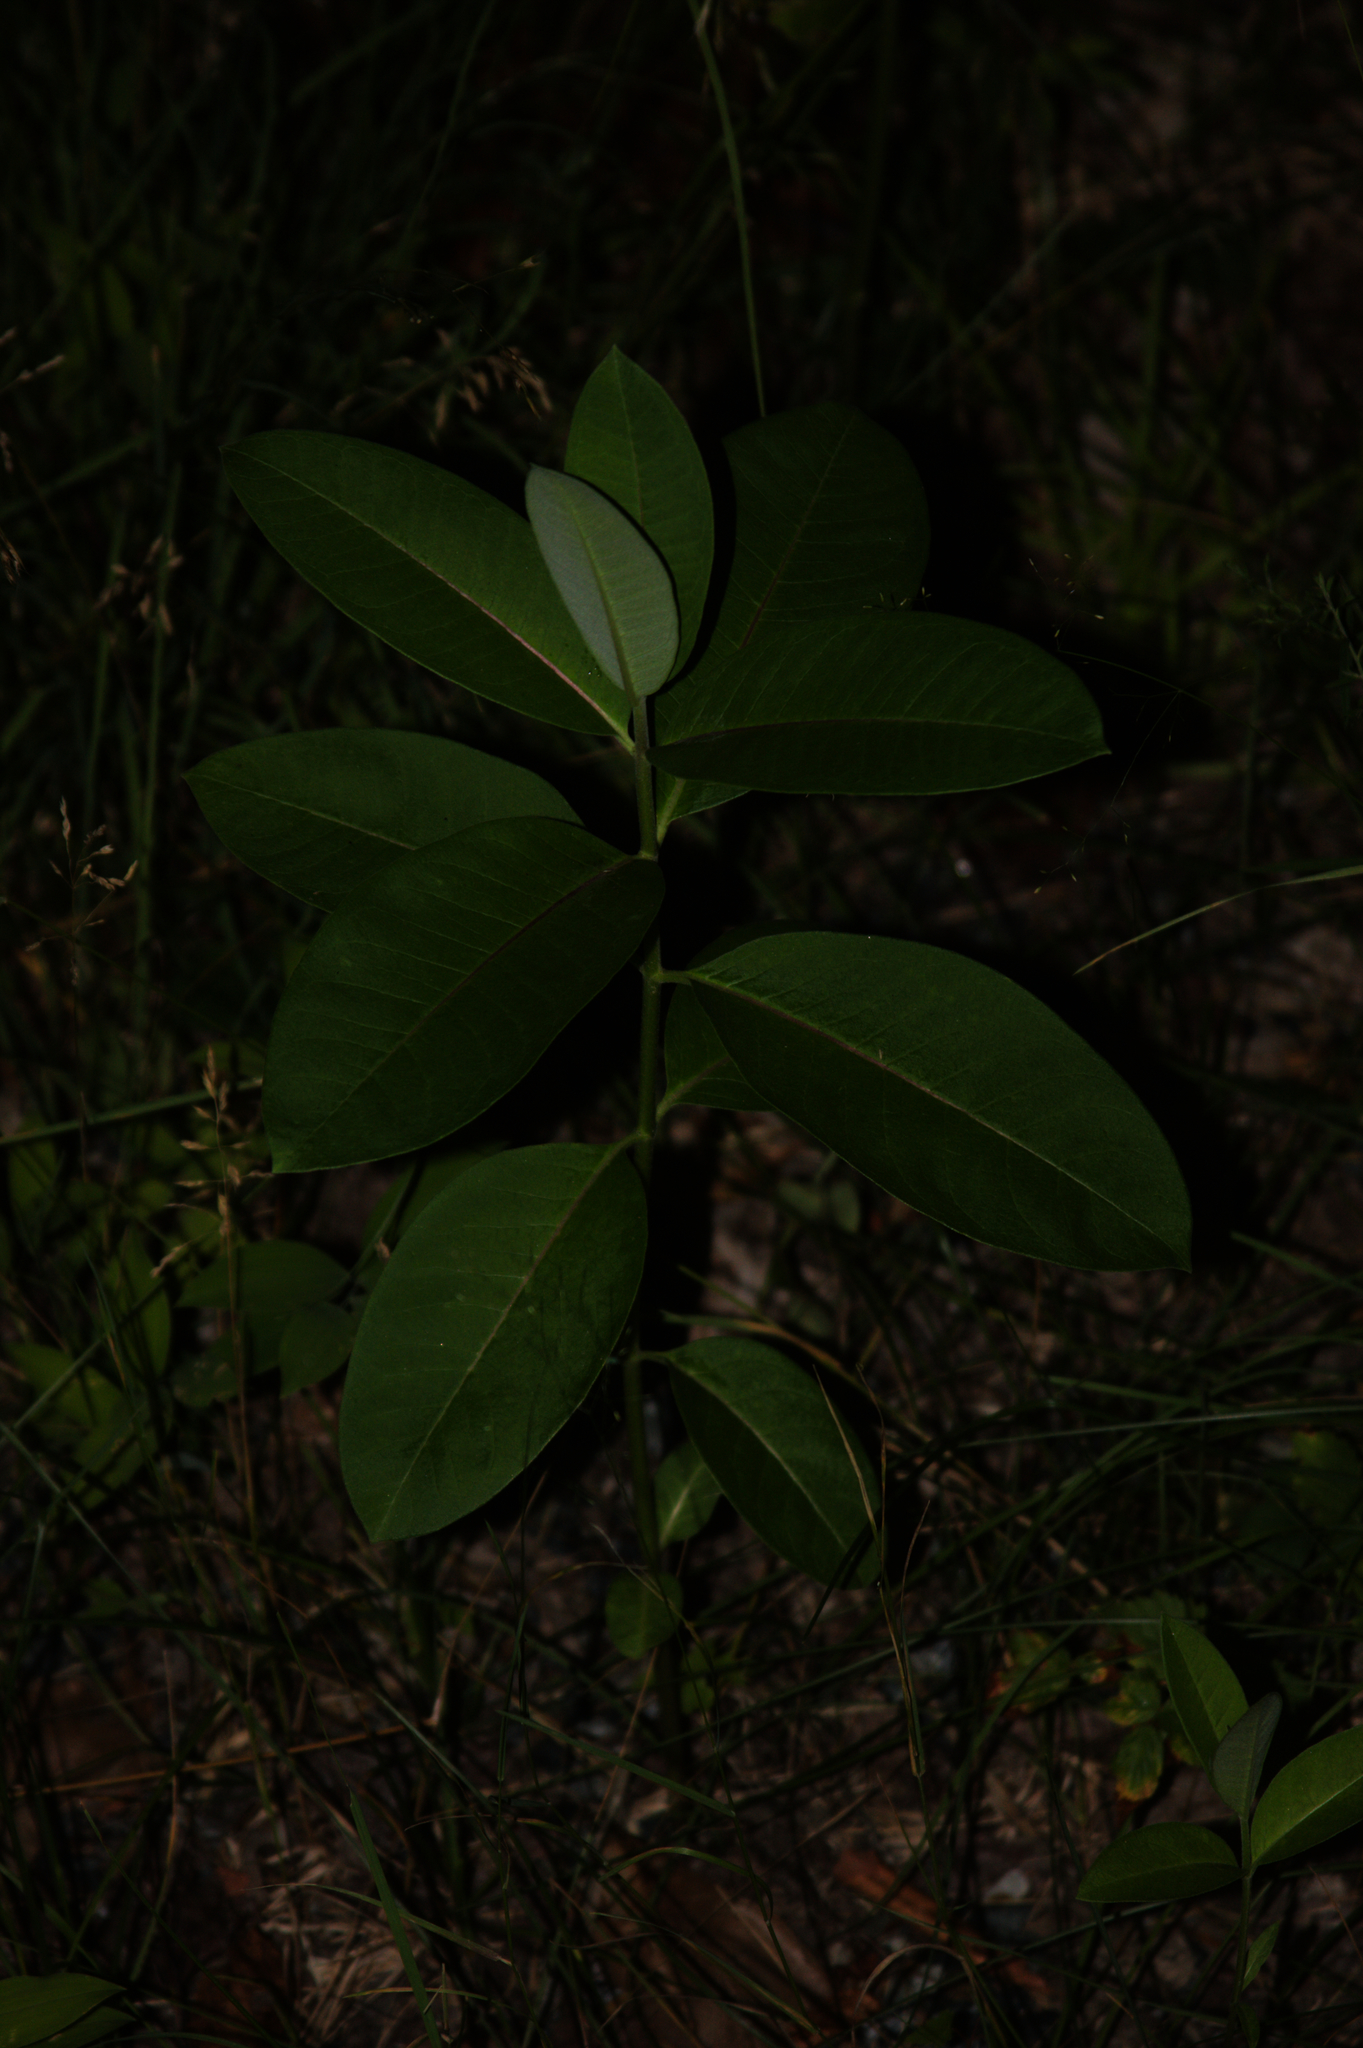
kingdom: Plantae
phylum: Tracheophyta
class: Magnoliopsida
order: Gentianales
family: Apocynaceae
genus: Asclepias
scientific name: Asclepias syriaca
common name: Common milkweed
